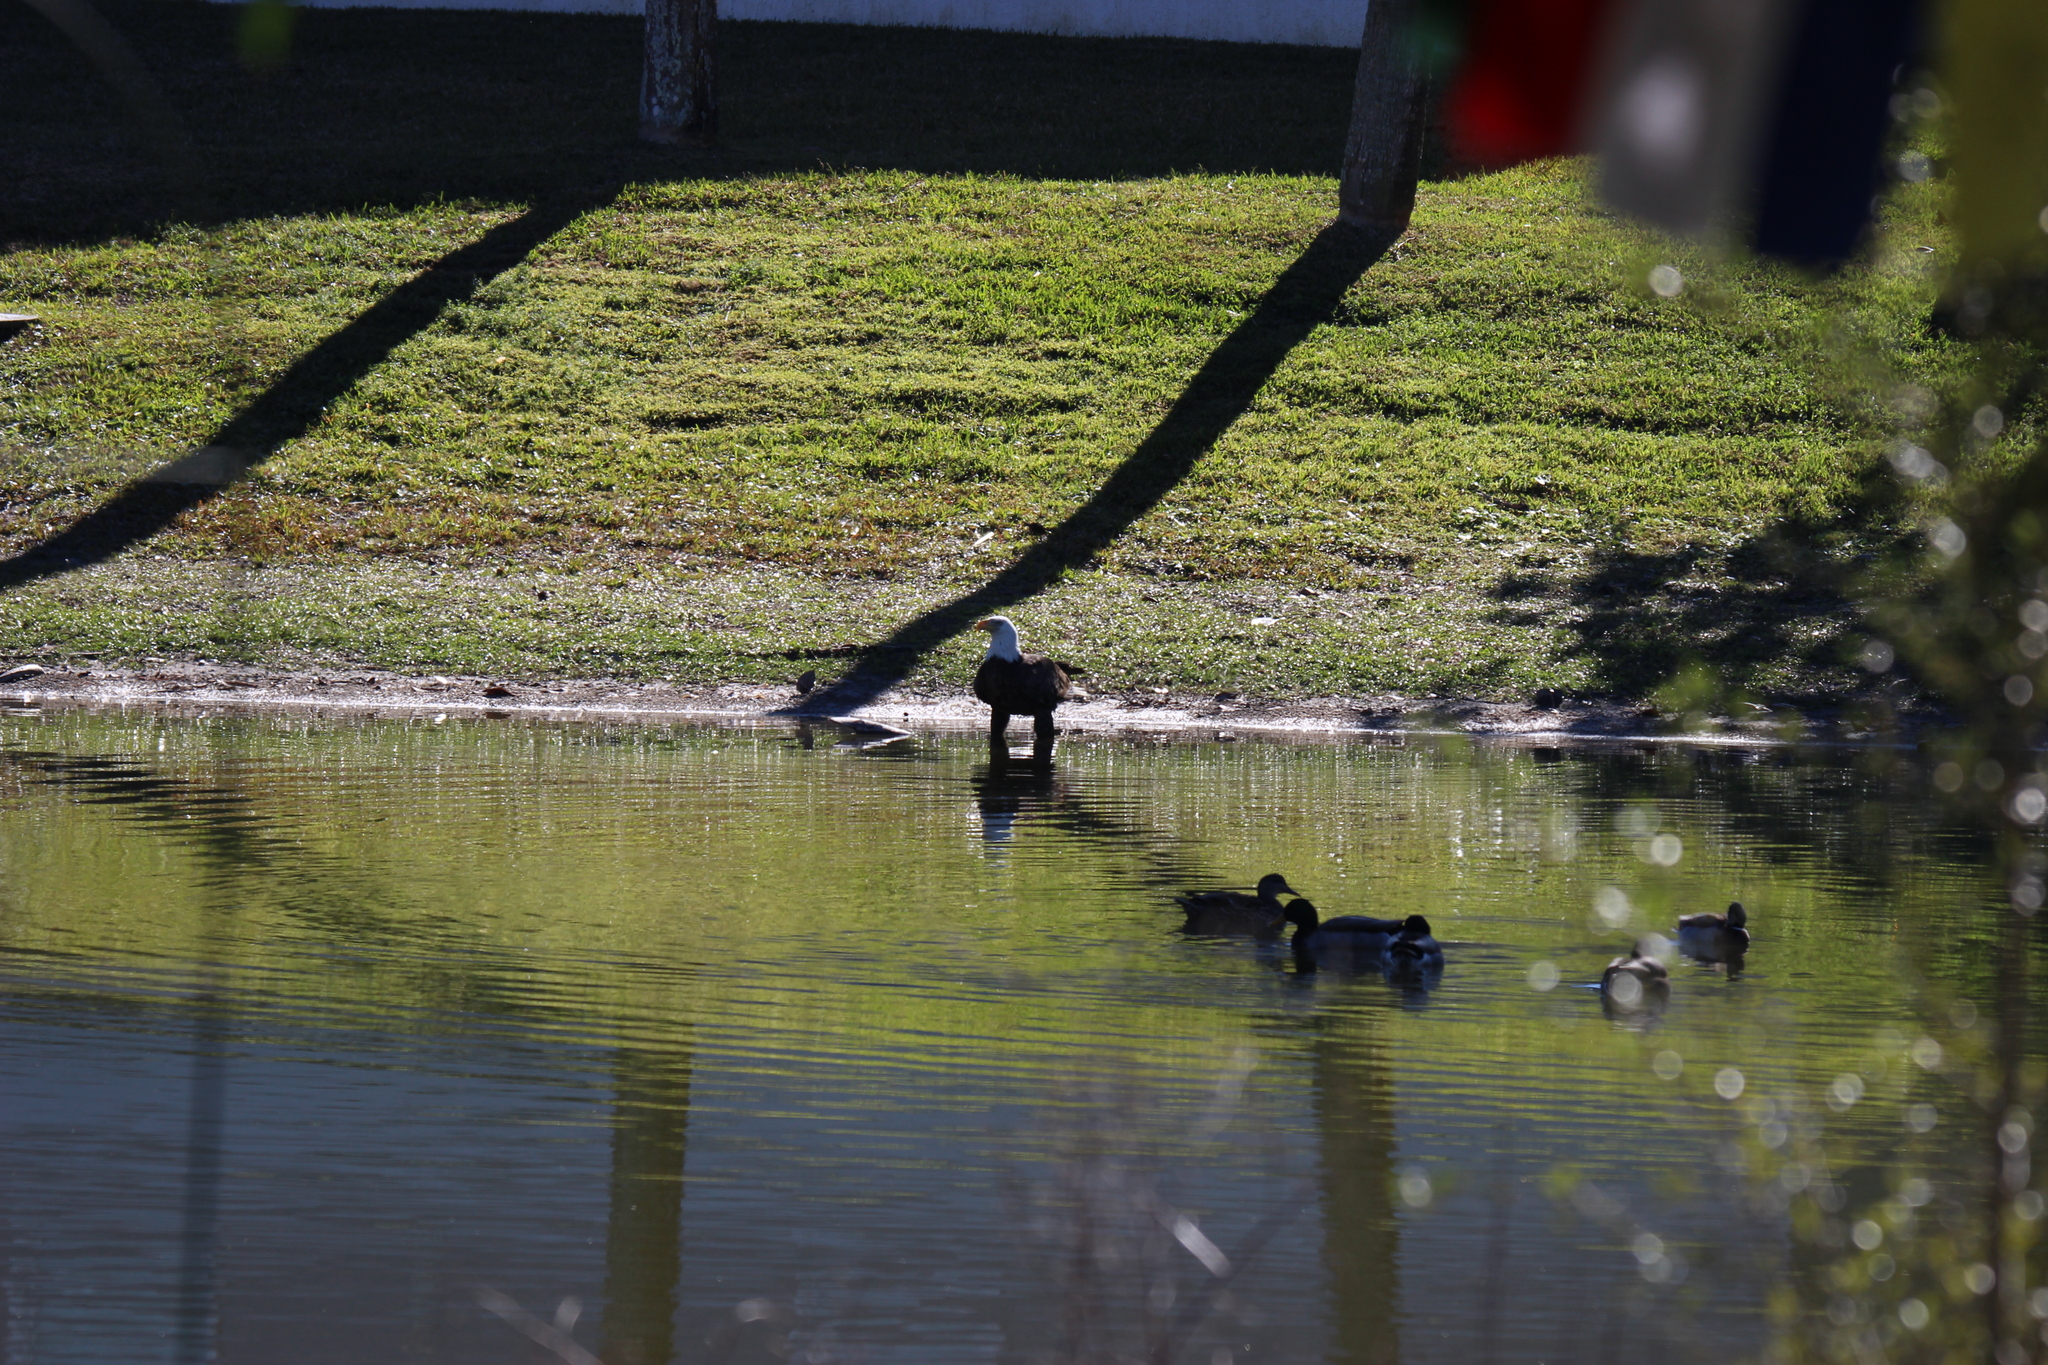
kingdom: Animalia
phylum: Chordata
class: Aves
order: Accipitriformes
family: Accipitridae
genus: Haliaeetus
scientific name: Haliaeetus leucocephalus
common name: Bald eagle
